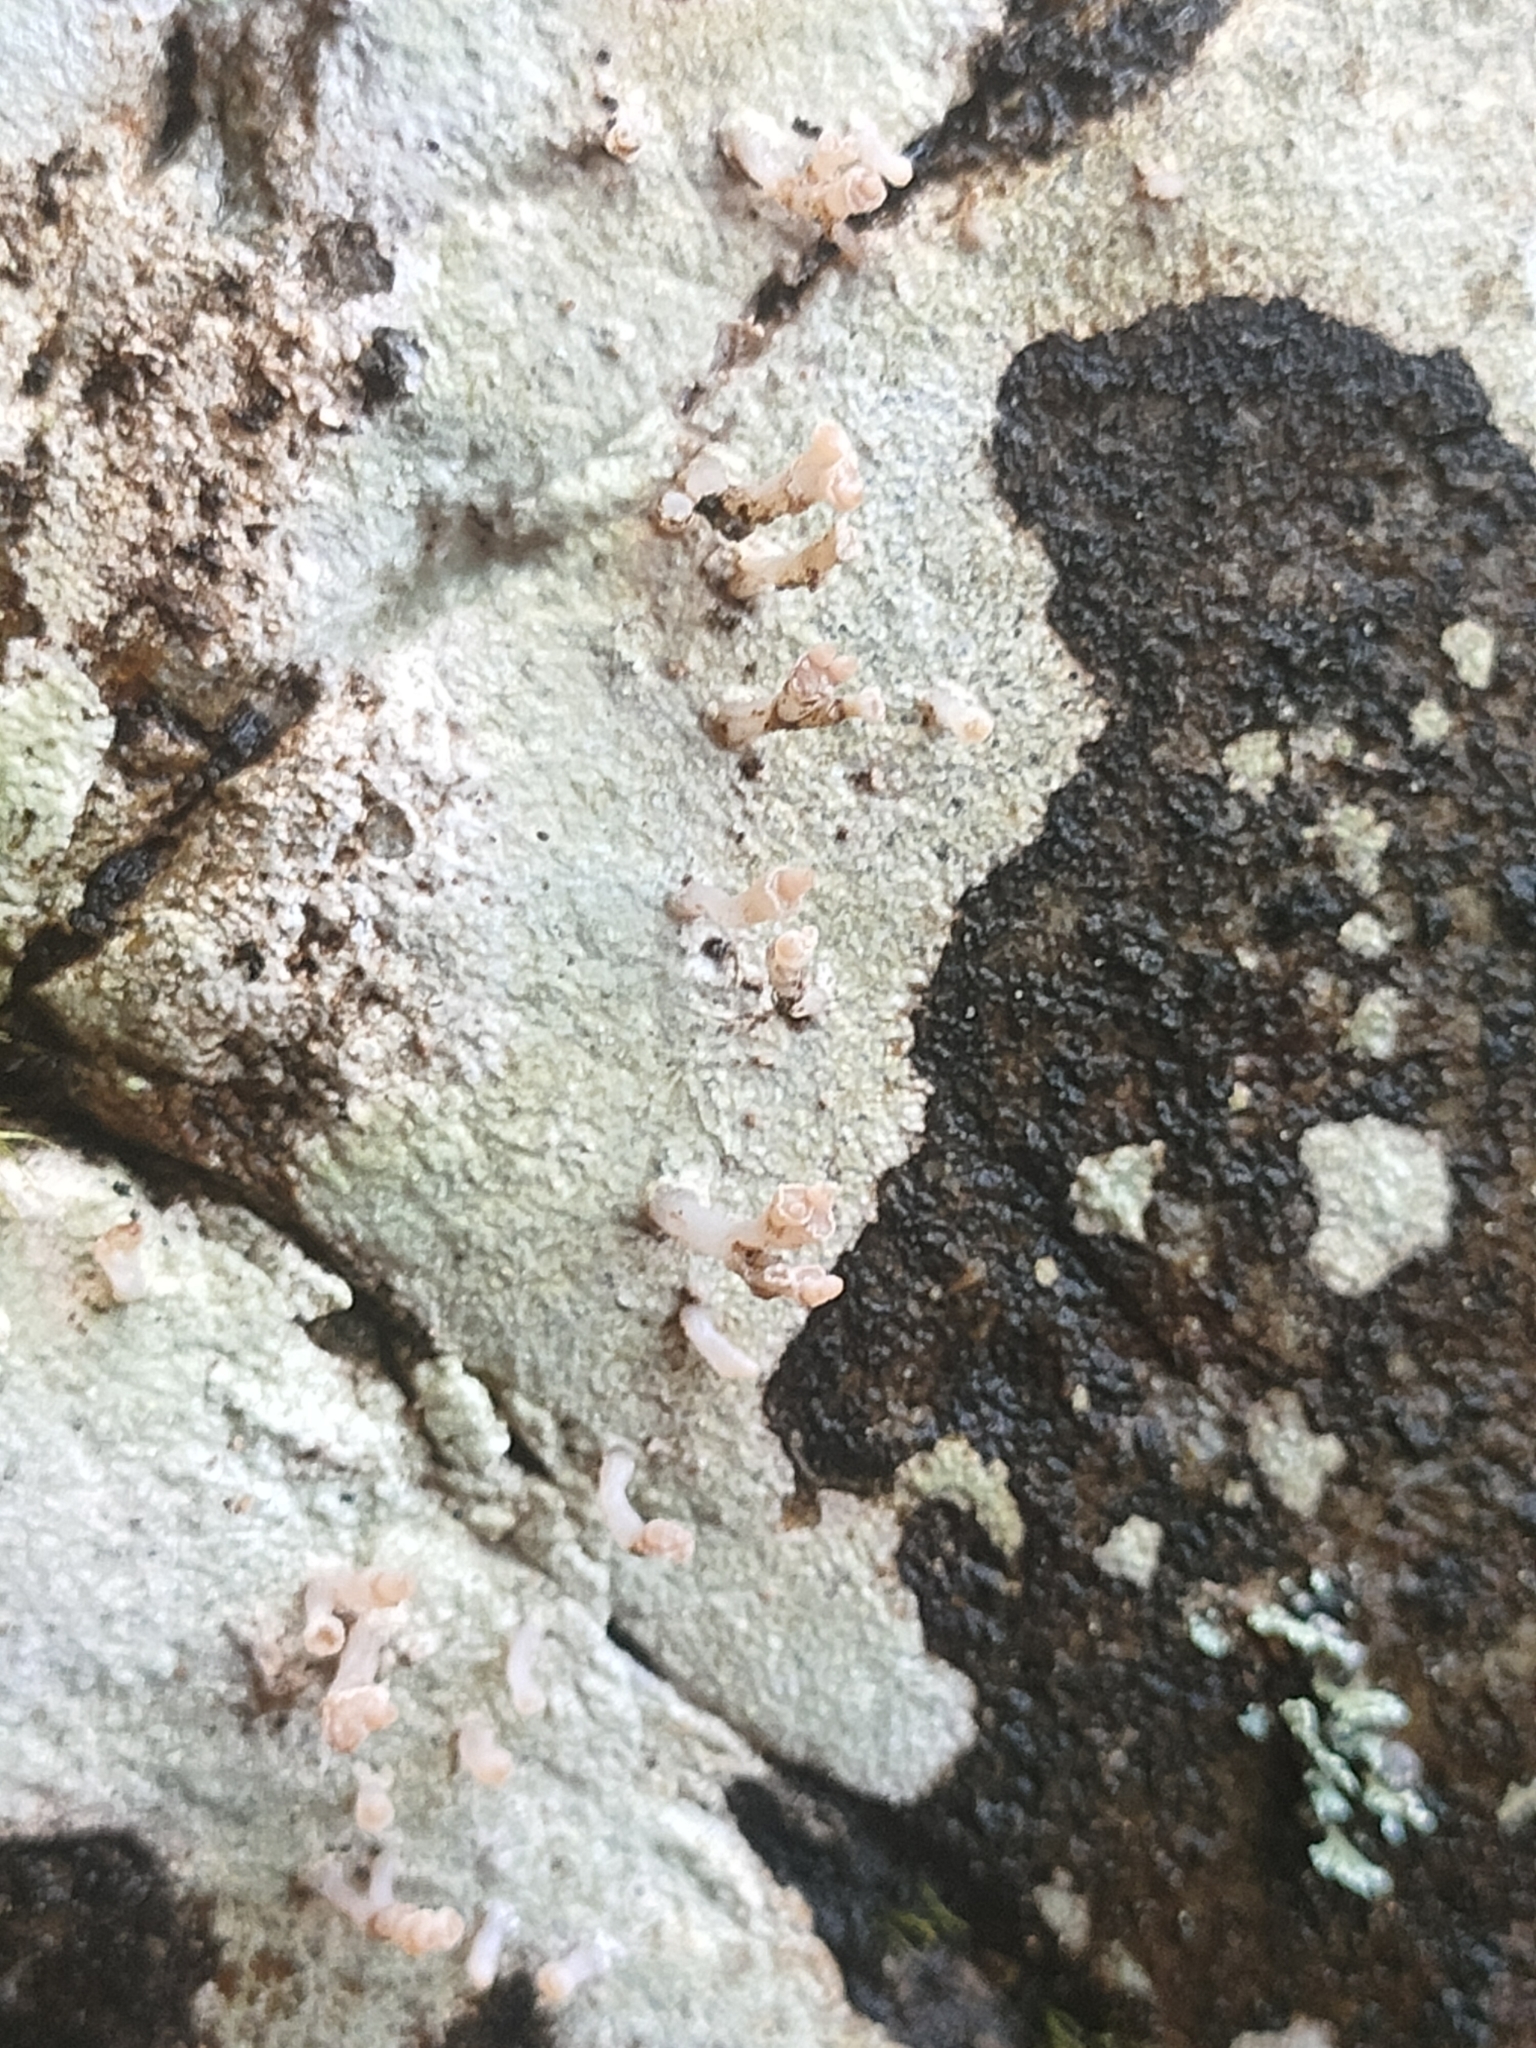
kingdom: Fungi
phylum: Ascomycota
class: Lecanoromycetes
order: Baeomycetales
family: Baeomycetaceae
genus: Baeomyces
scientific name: Baeomyces heteromorphus
